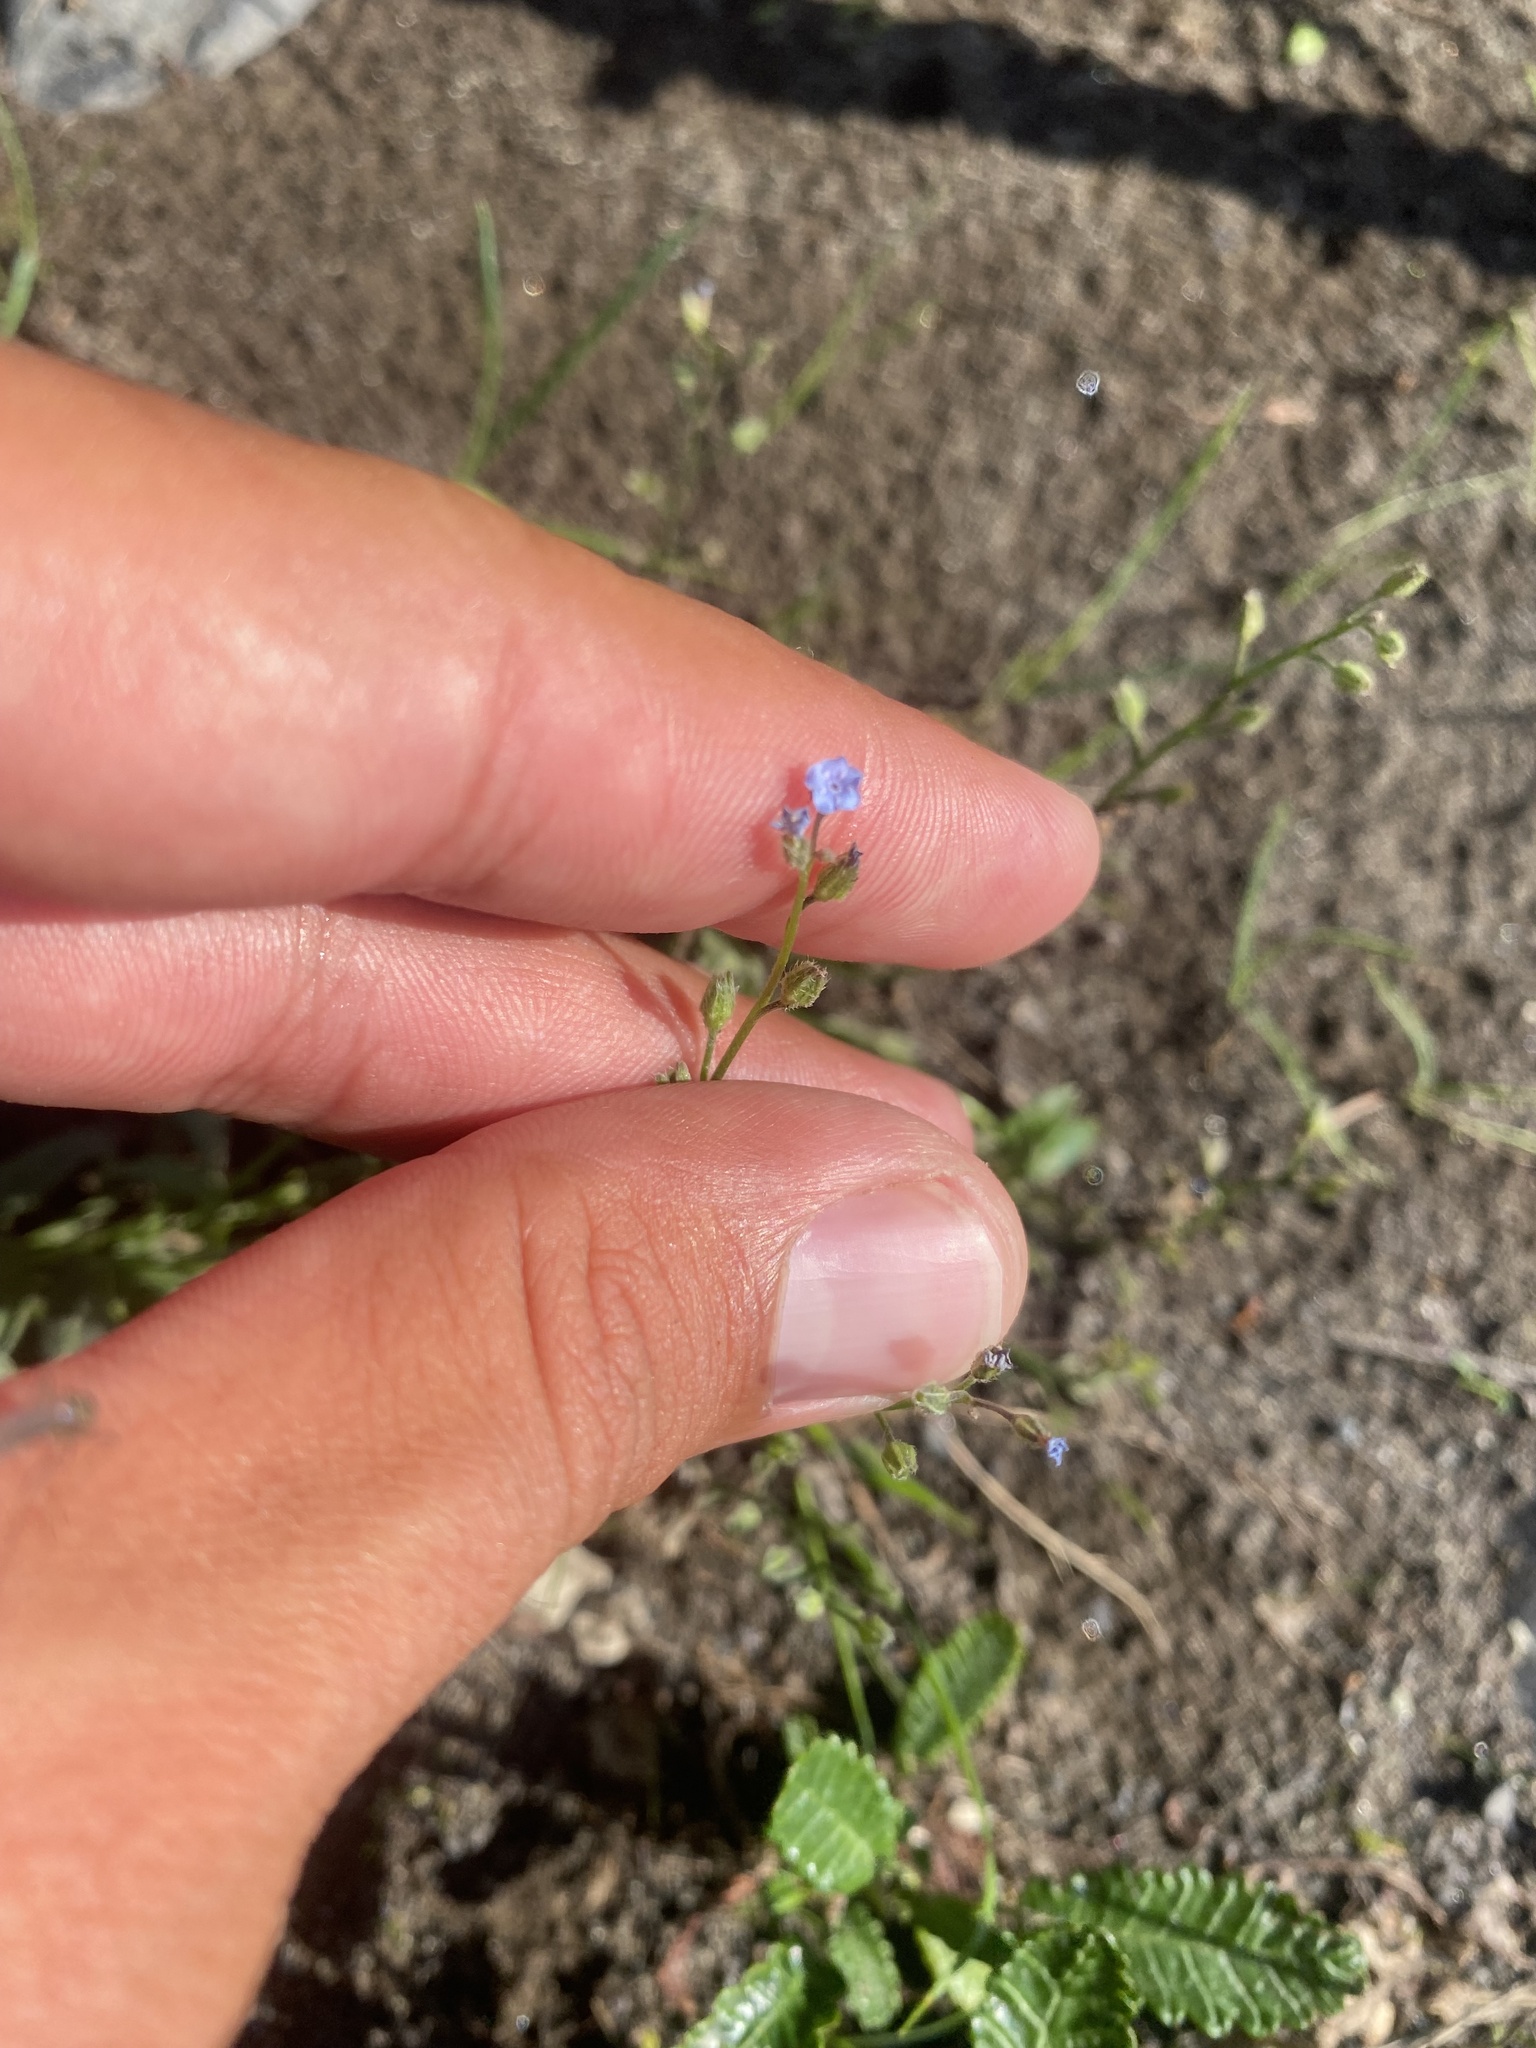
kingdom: Plantae
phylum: Tracheophyta
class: Magnoliopsida
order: Boraginales
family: Boraginaceae
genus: Myosotis
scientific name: Myosotis asiatica
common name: Asian forget-me-not
